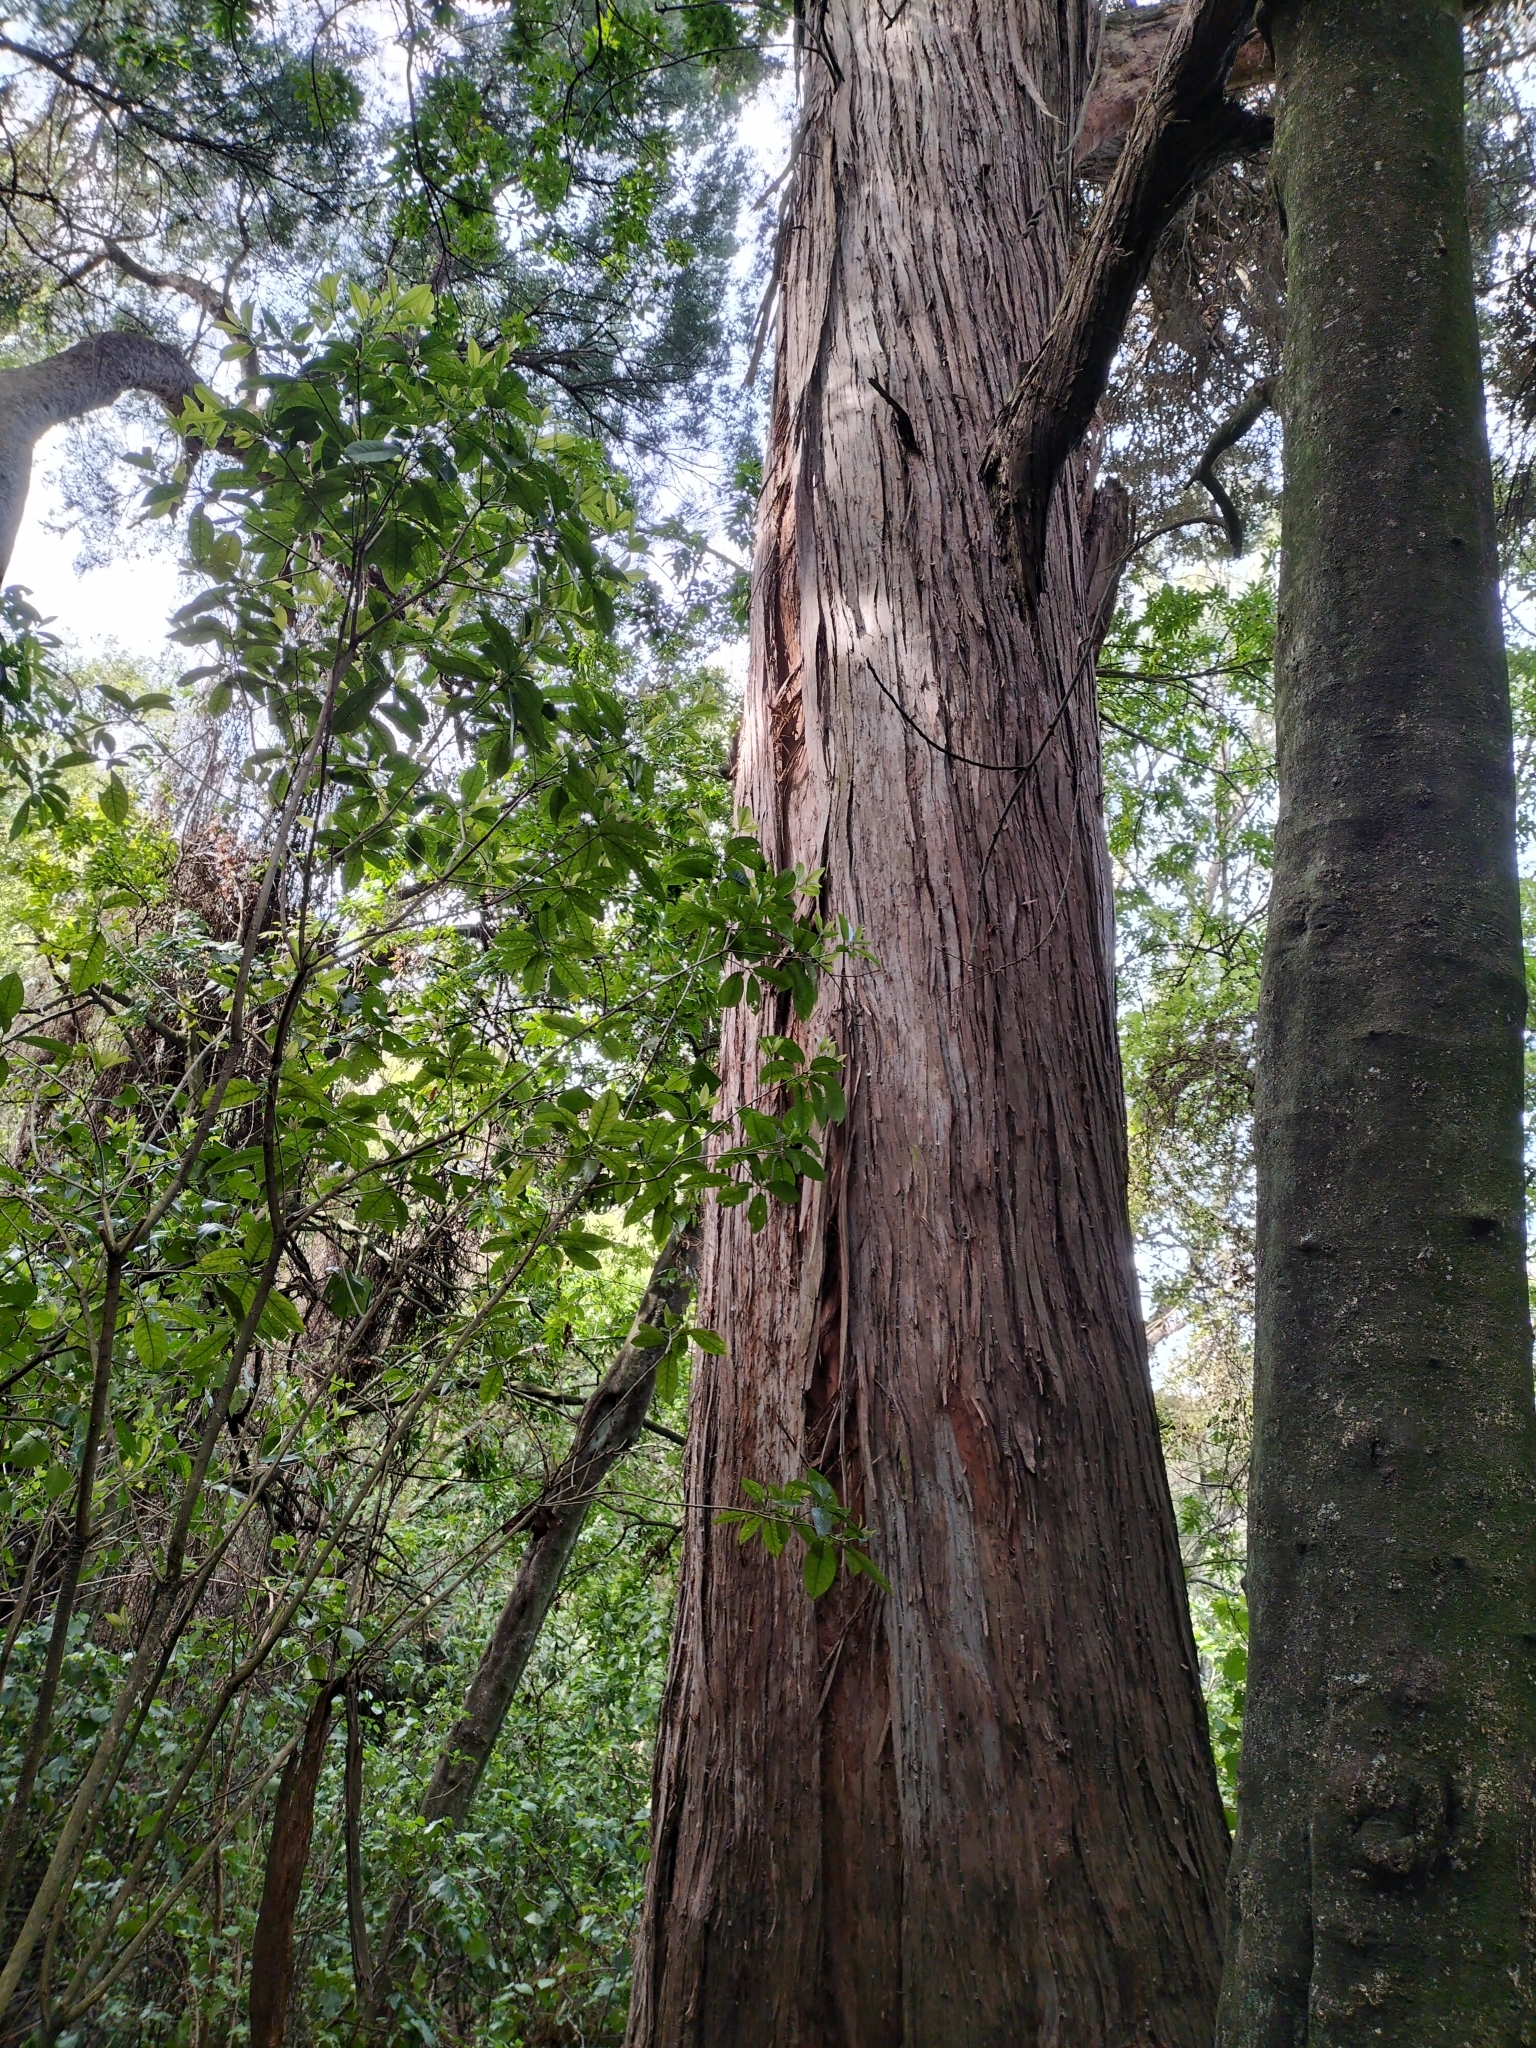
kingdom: Plantae
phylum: Tracheophyta
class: Pinopsida
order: Pinales
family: Podocarpaceae
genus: Podocarpus
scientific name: Podocarpus totara
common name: Totara
